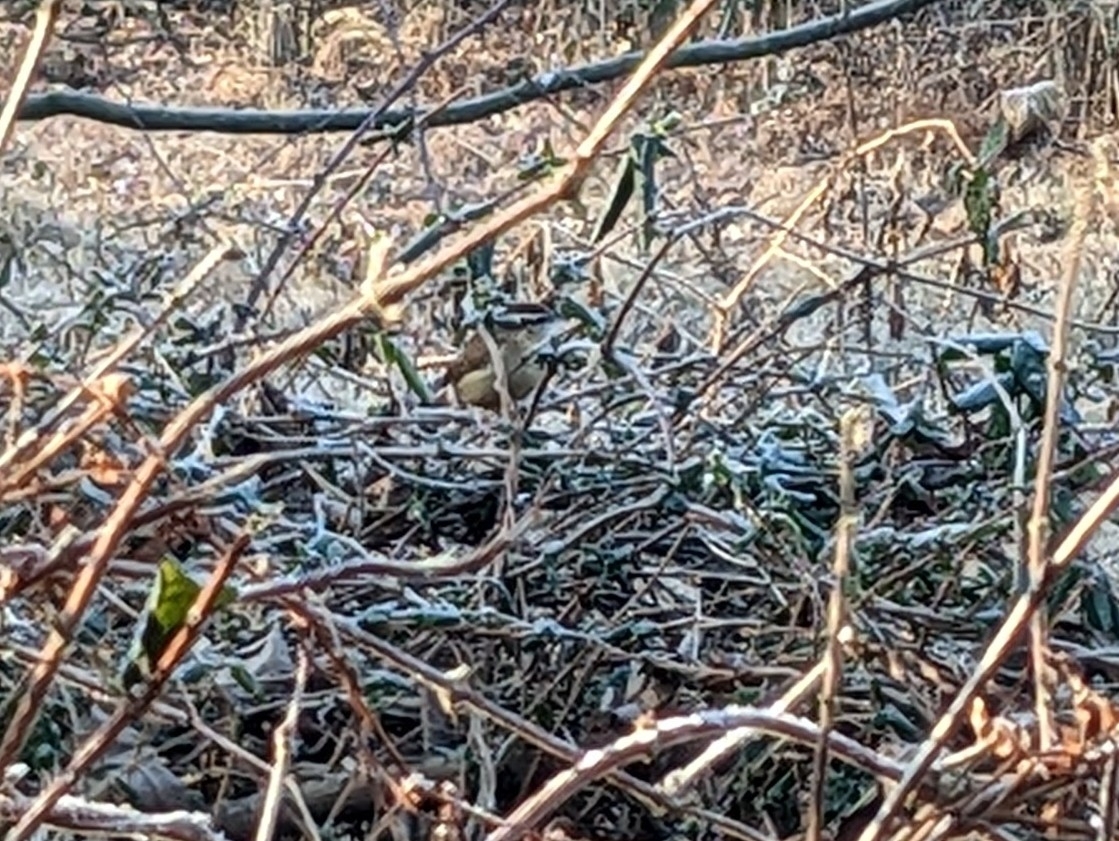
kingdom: Animalia
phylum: Chordata
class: Aves
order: Passeriformes
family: Troglodytidae
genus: Thryothorus
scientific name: Thryothorus ludovicianus
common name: Carolina wren
